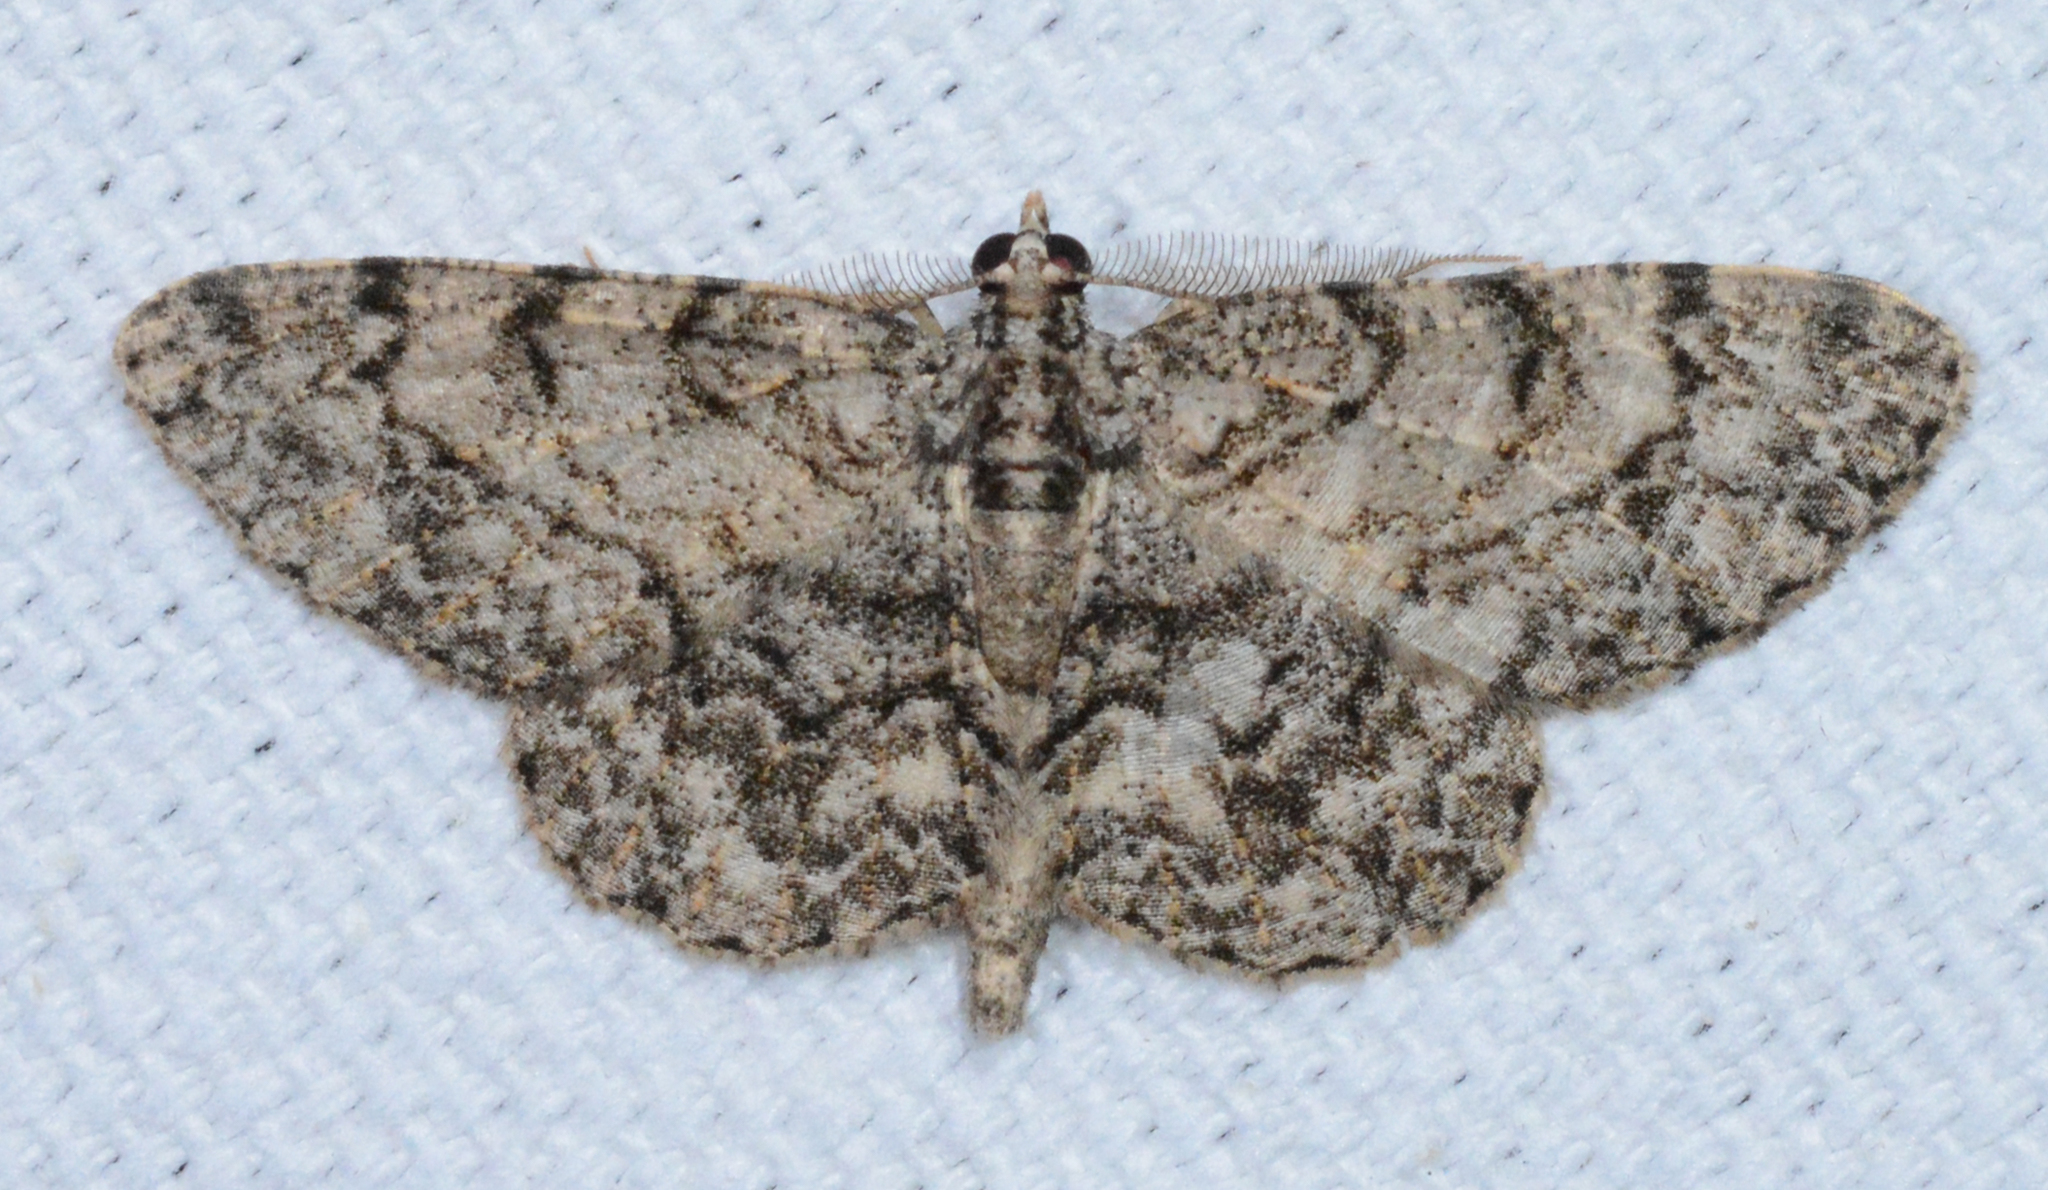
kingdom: Animalia
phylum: Arthropoda
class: Insecta
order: Lepidoptera
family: Geometridae
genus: Protoboarmia
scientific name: Protoboarmia porcelaria
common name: Porcelain gray
